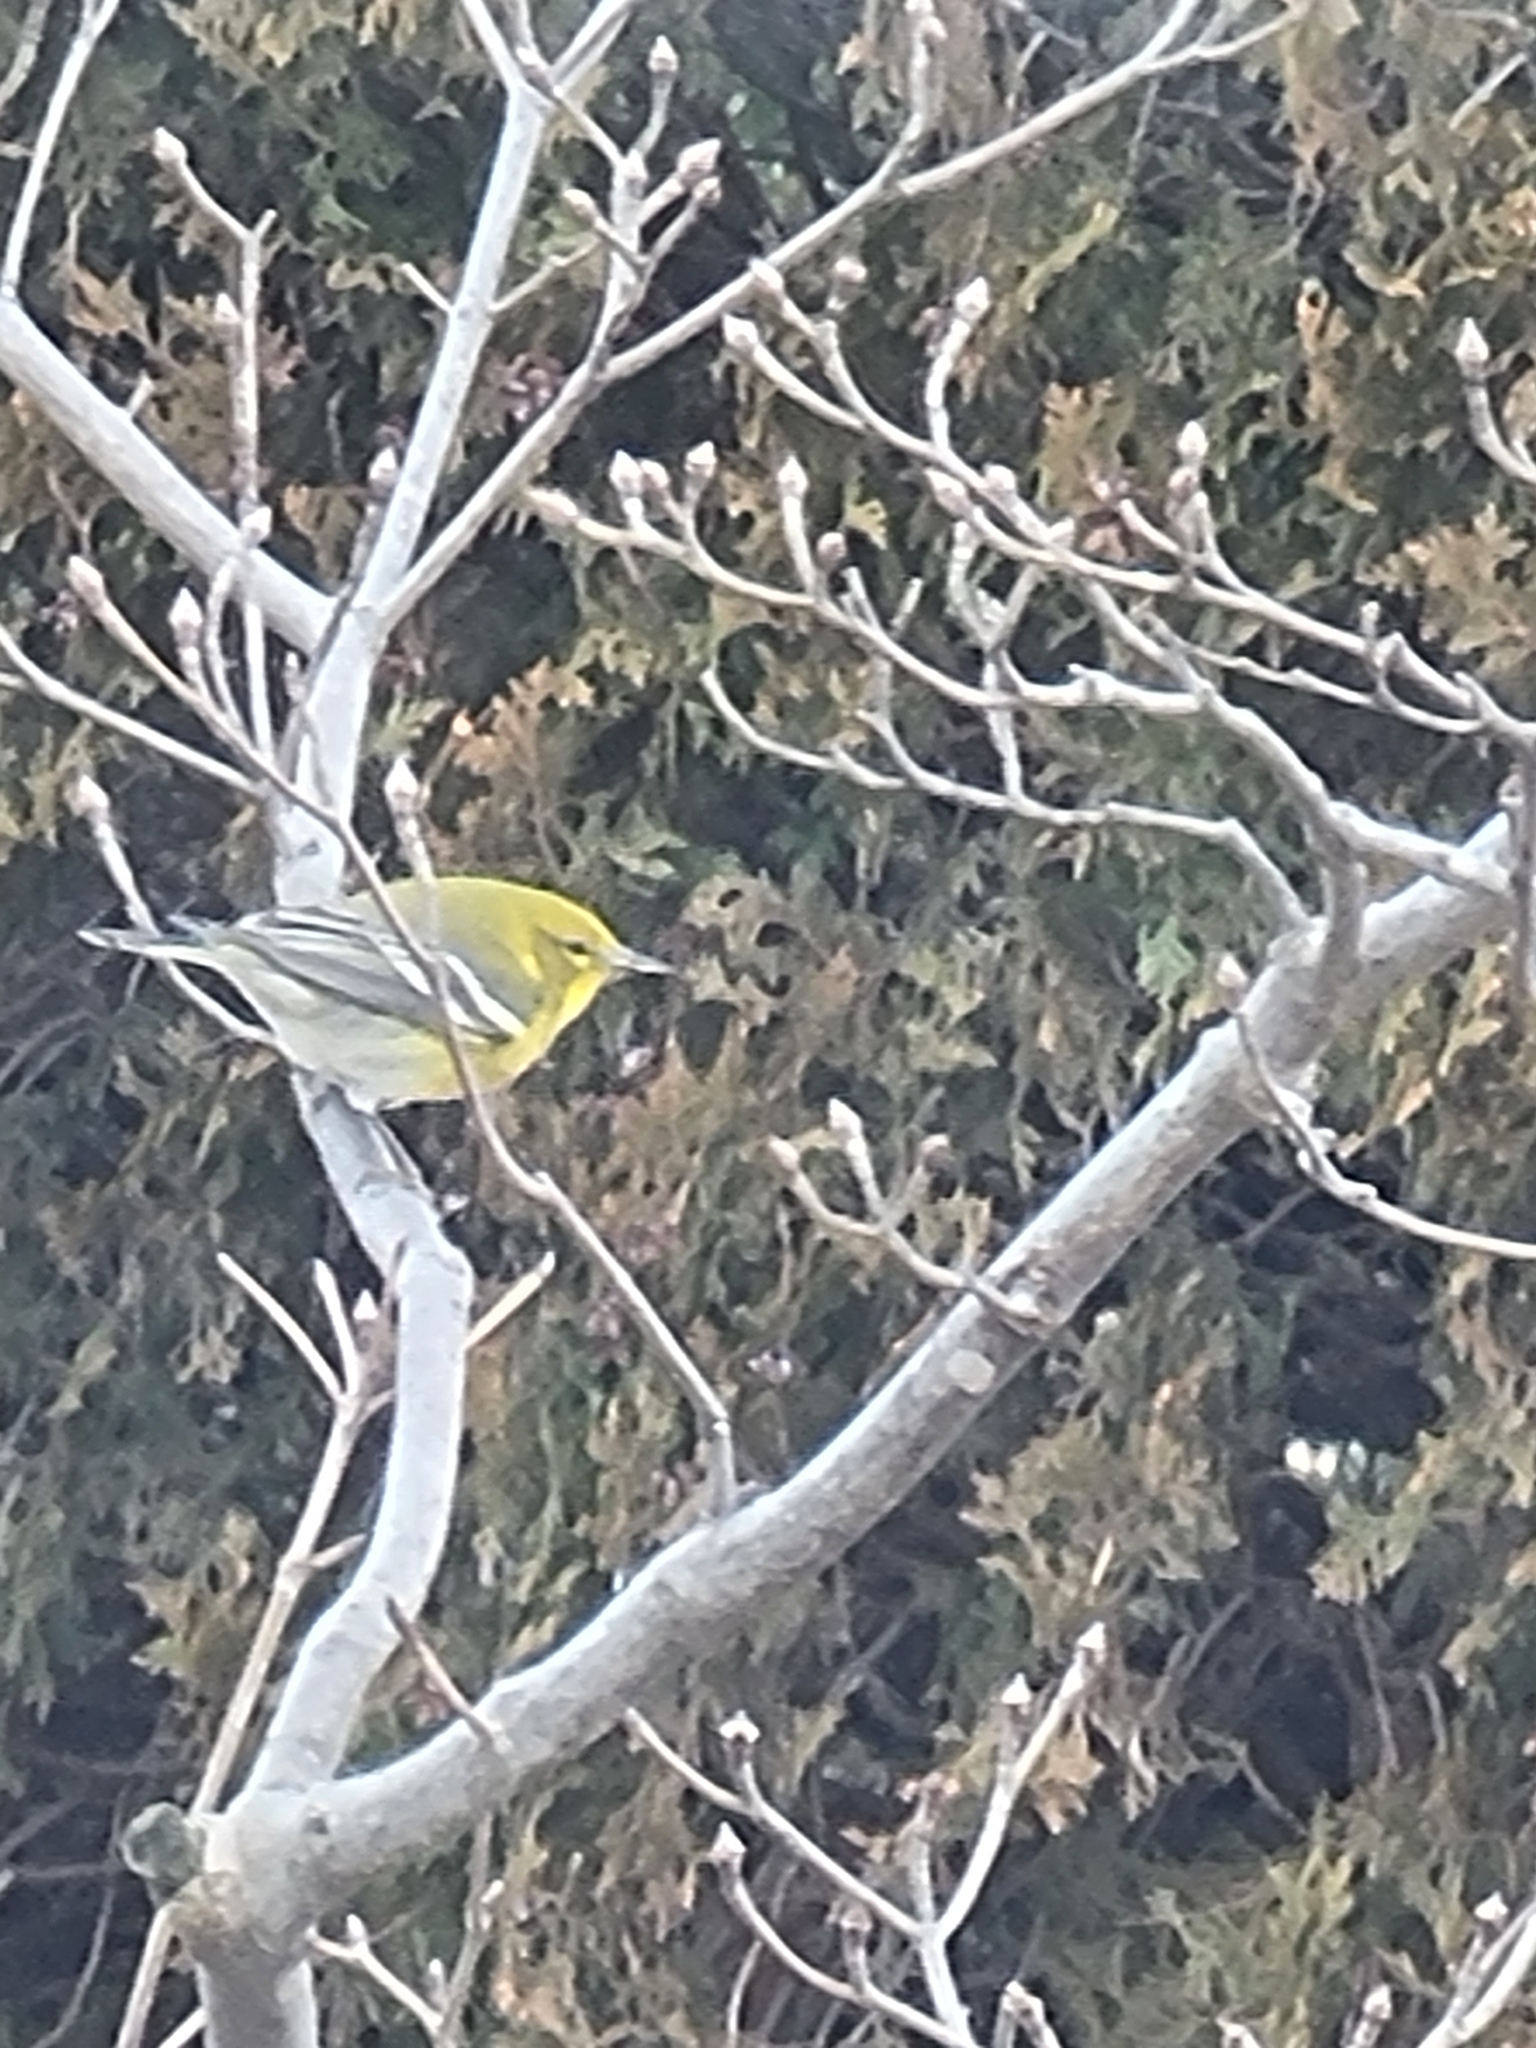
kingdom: Animalia
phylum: Chordata
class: Aves
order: Passeriformes
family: Parulidae
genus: Setophaga
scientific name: Setophaga pinus
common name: Pine warbler
